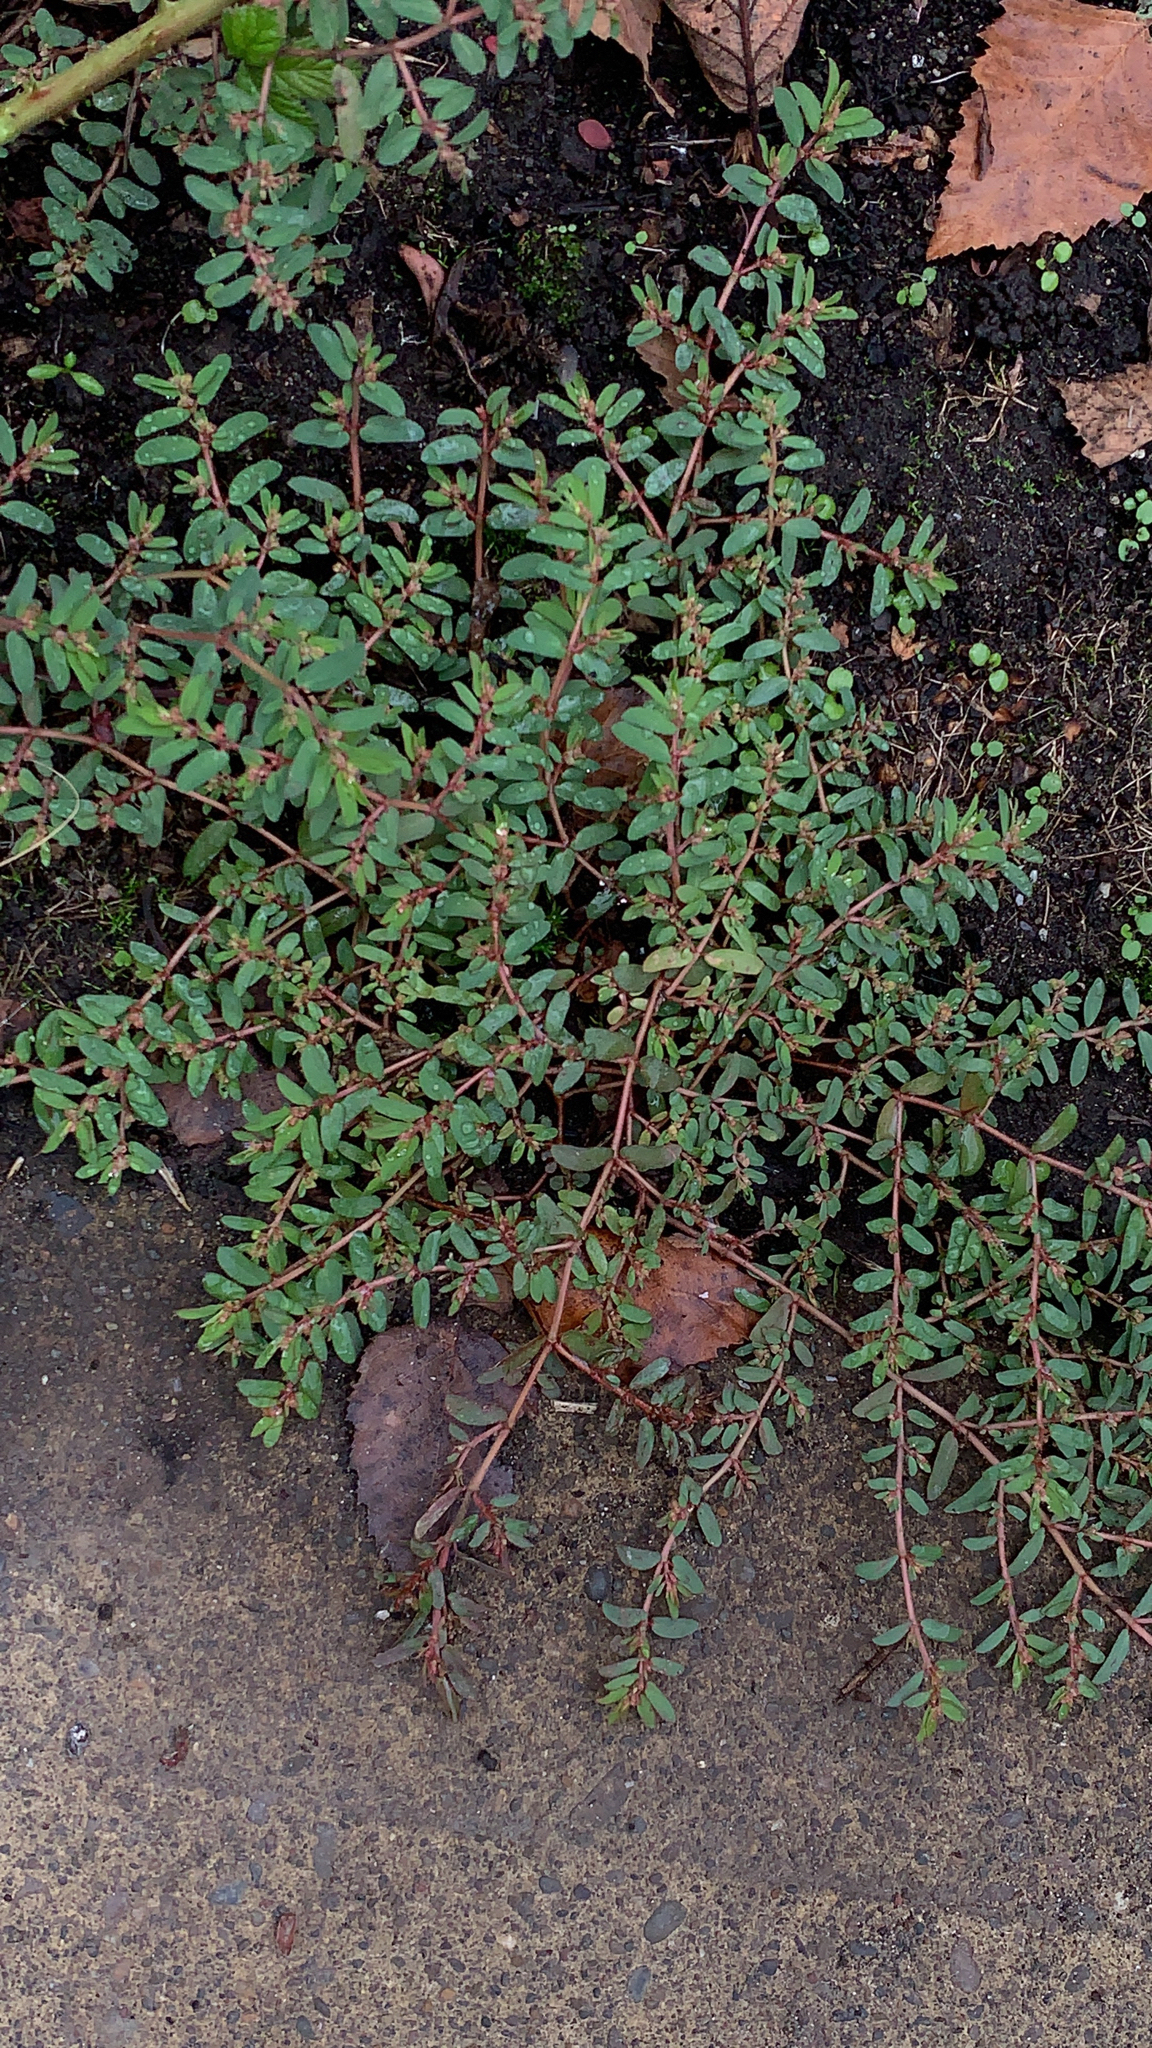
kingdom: Plantae
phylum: Tracheophyta
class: Magnoliopsida
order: Malpighiales
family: Euphorbiaceae
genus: Euphorbia
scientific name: Euphorbia maculata
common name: Spotted spurge
